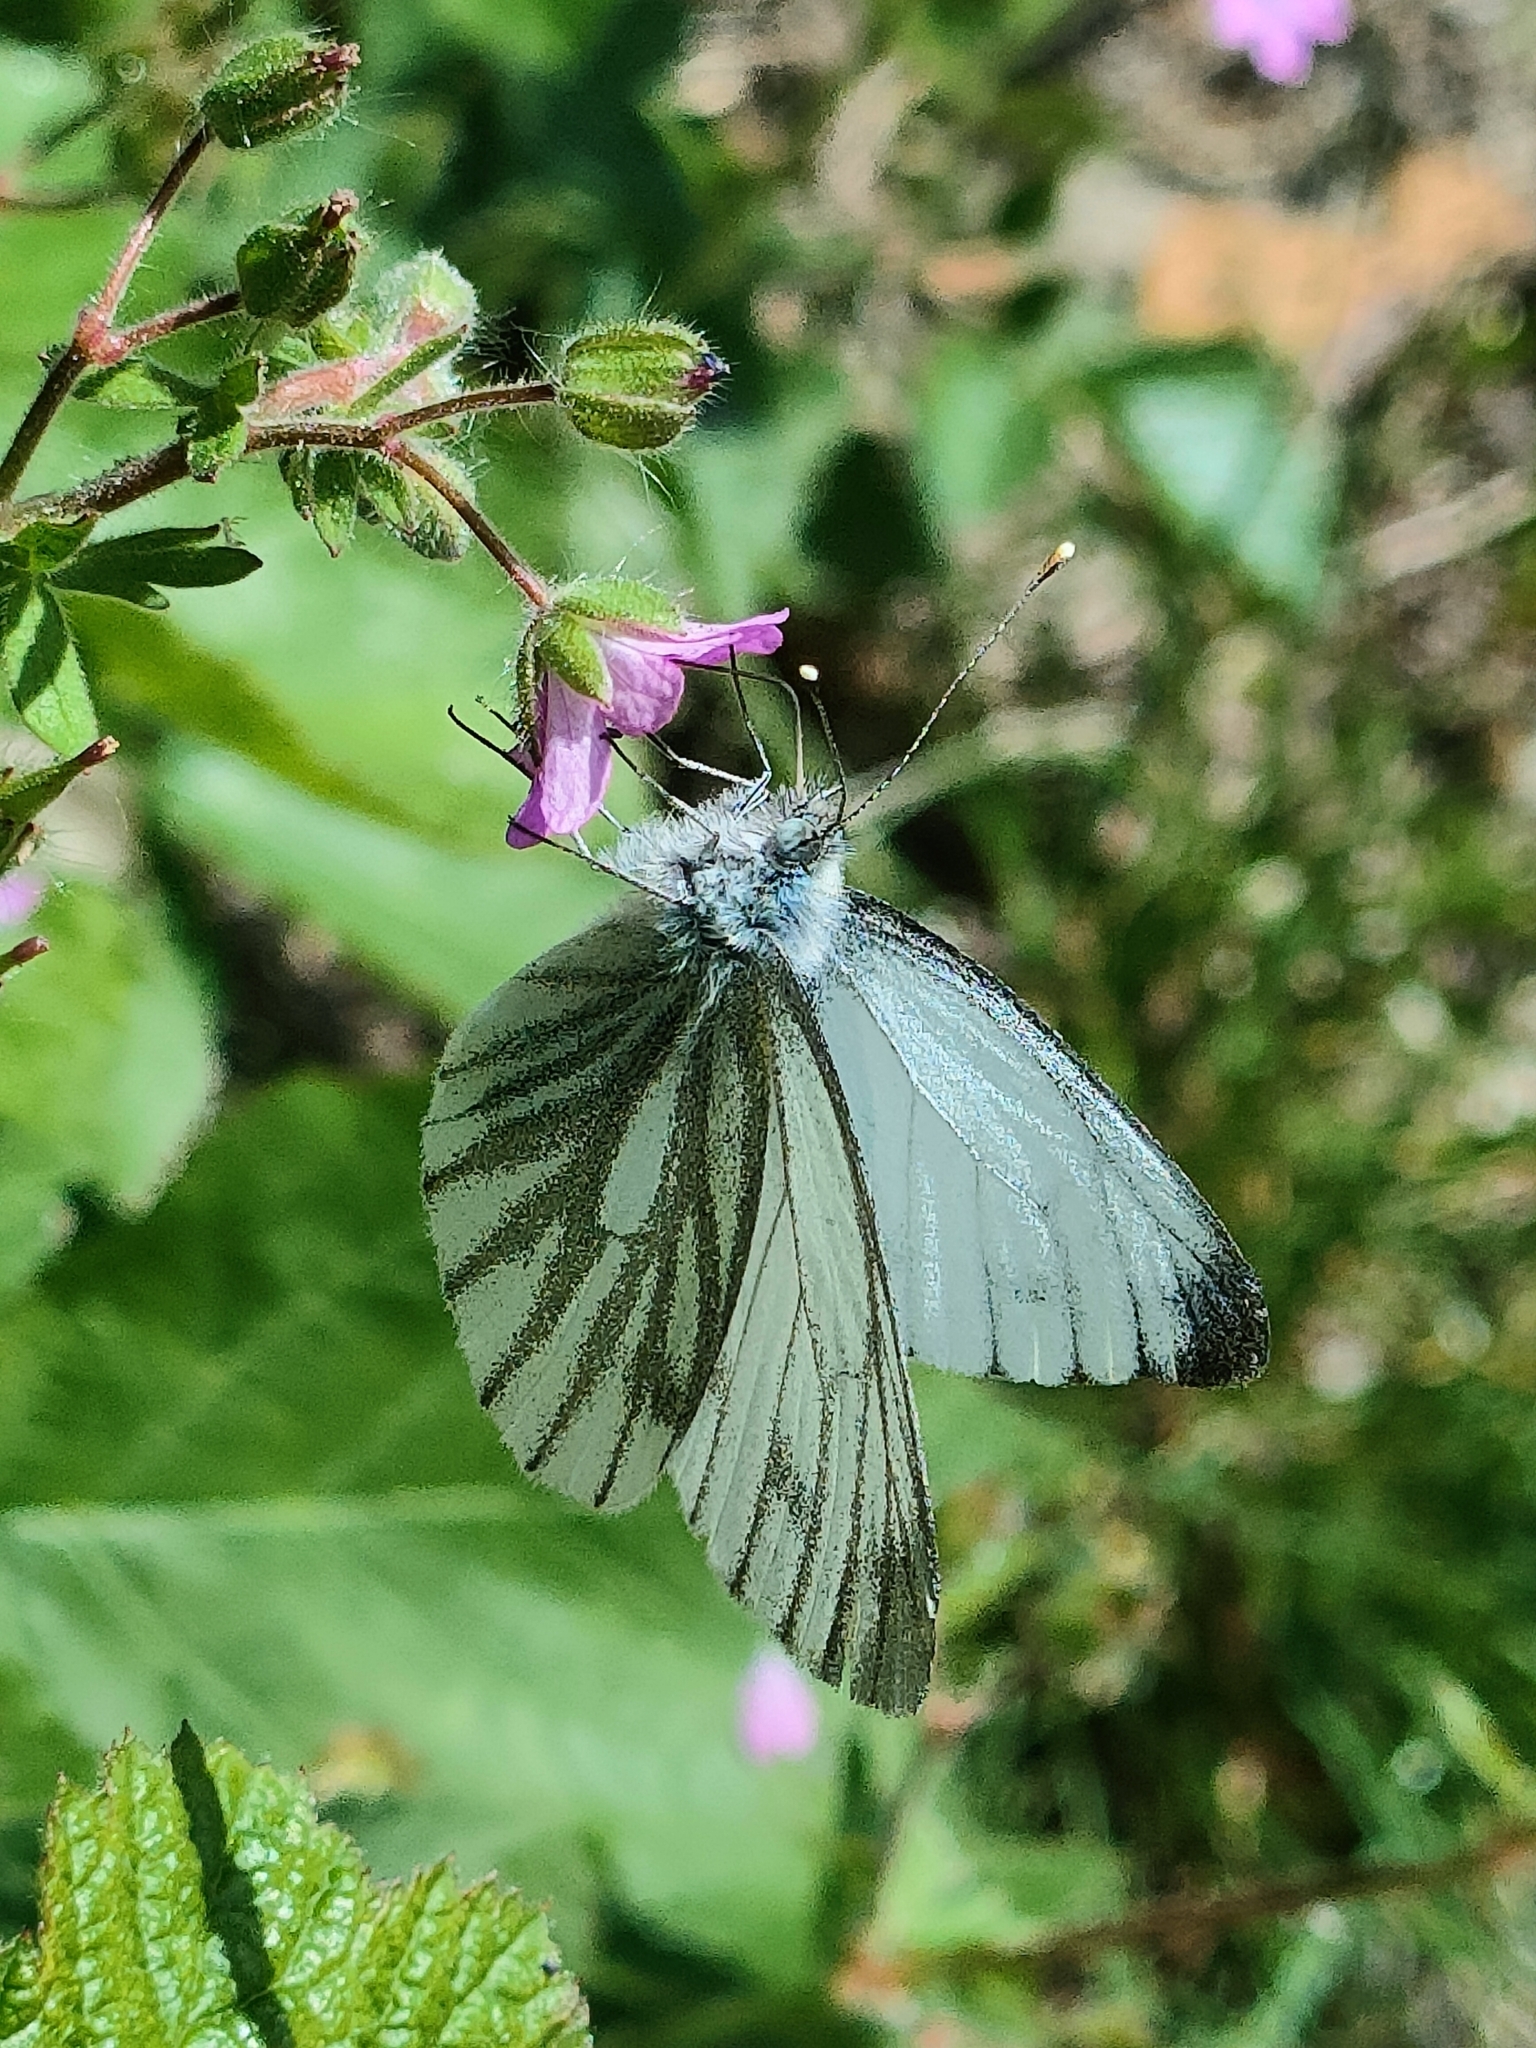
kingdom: Animalia
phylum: Arthropoda
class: Insecta
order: Lepidoptera
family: Pieridae
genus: Pieris
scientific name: Pieris napi
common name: Green-veined white
